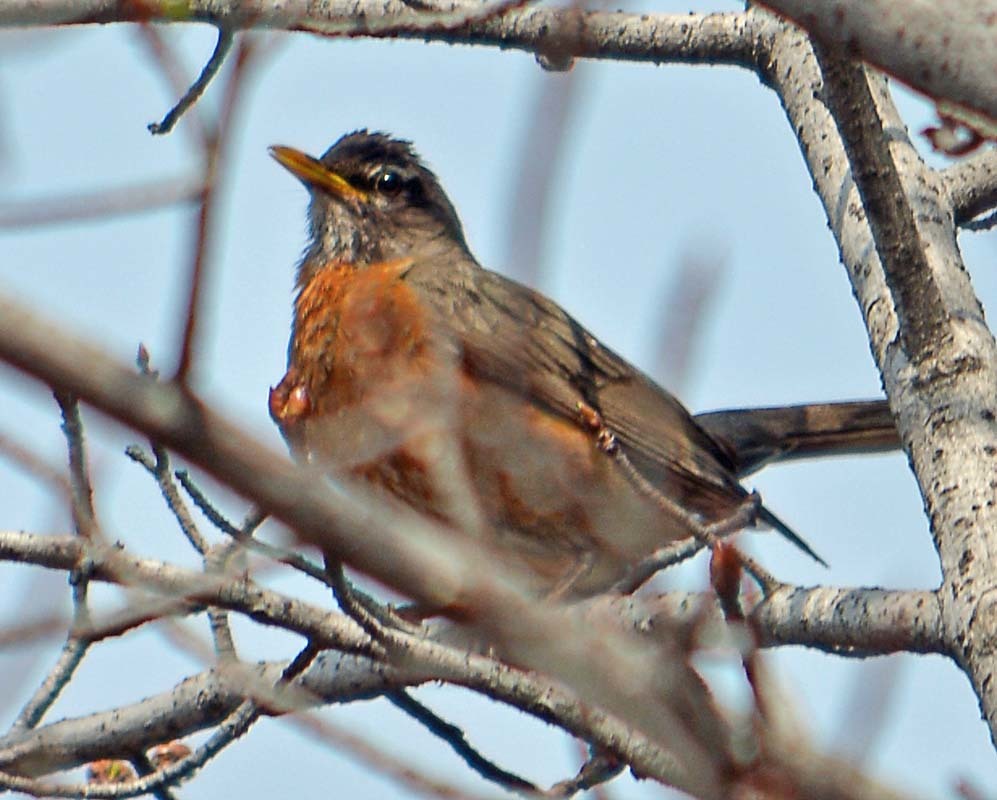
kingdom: Animalia
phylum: Chordata
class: Aves
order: Passeriformes
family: Turdidae
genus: Turdus
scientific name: Turdus migratorius
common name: American robin
